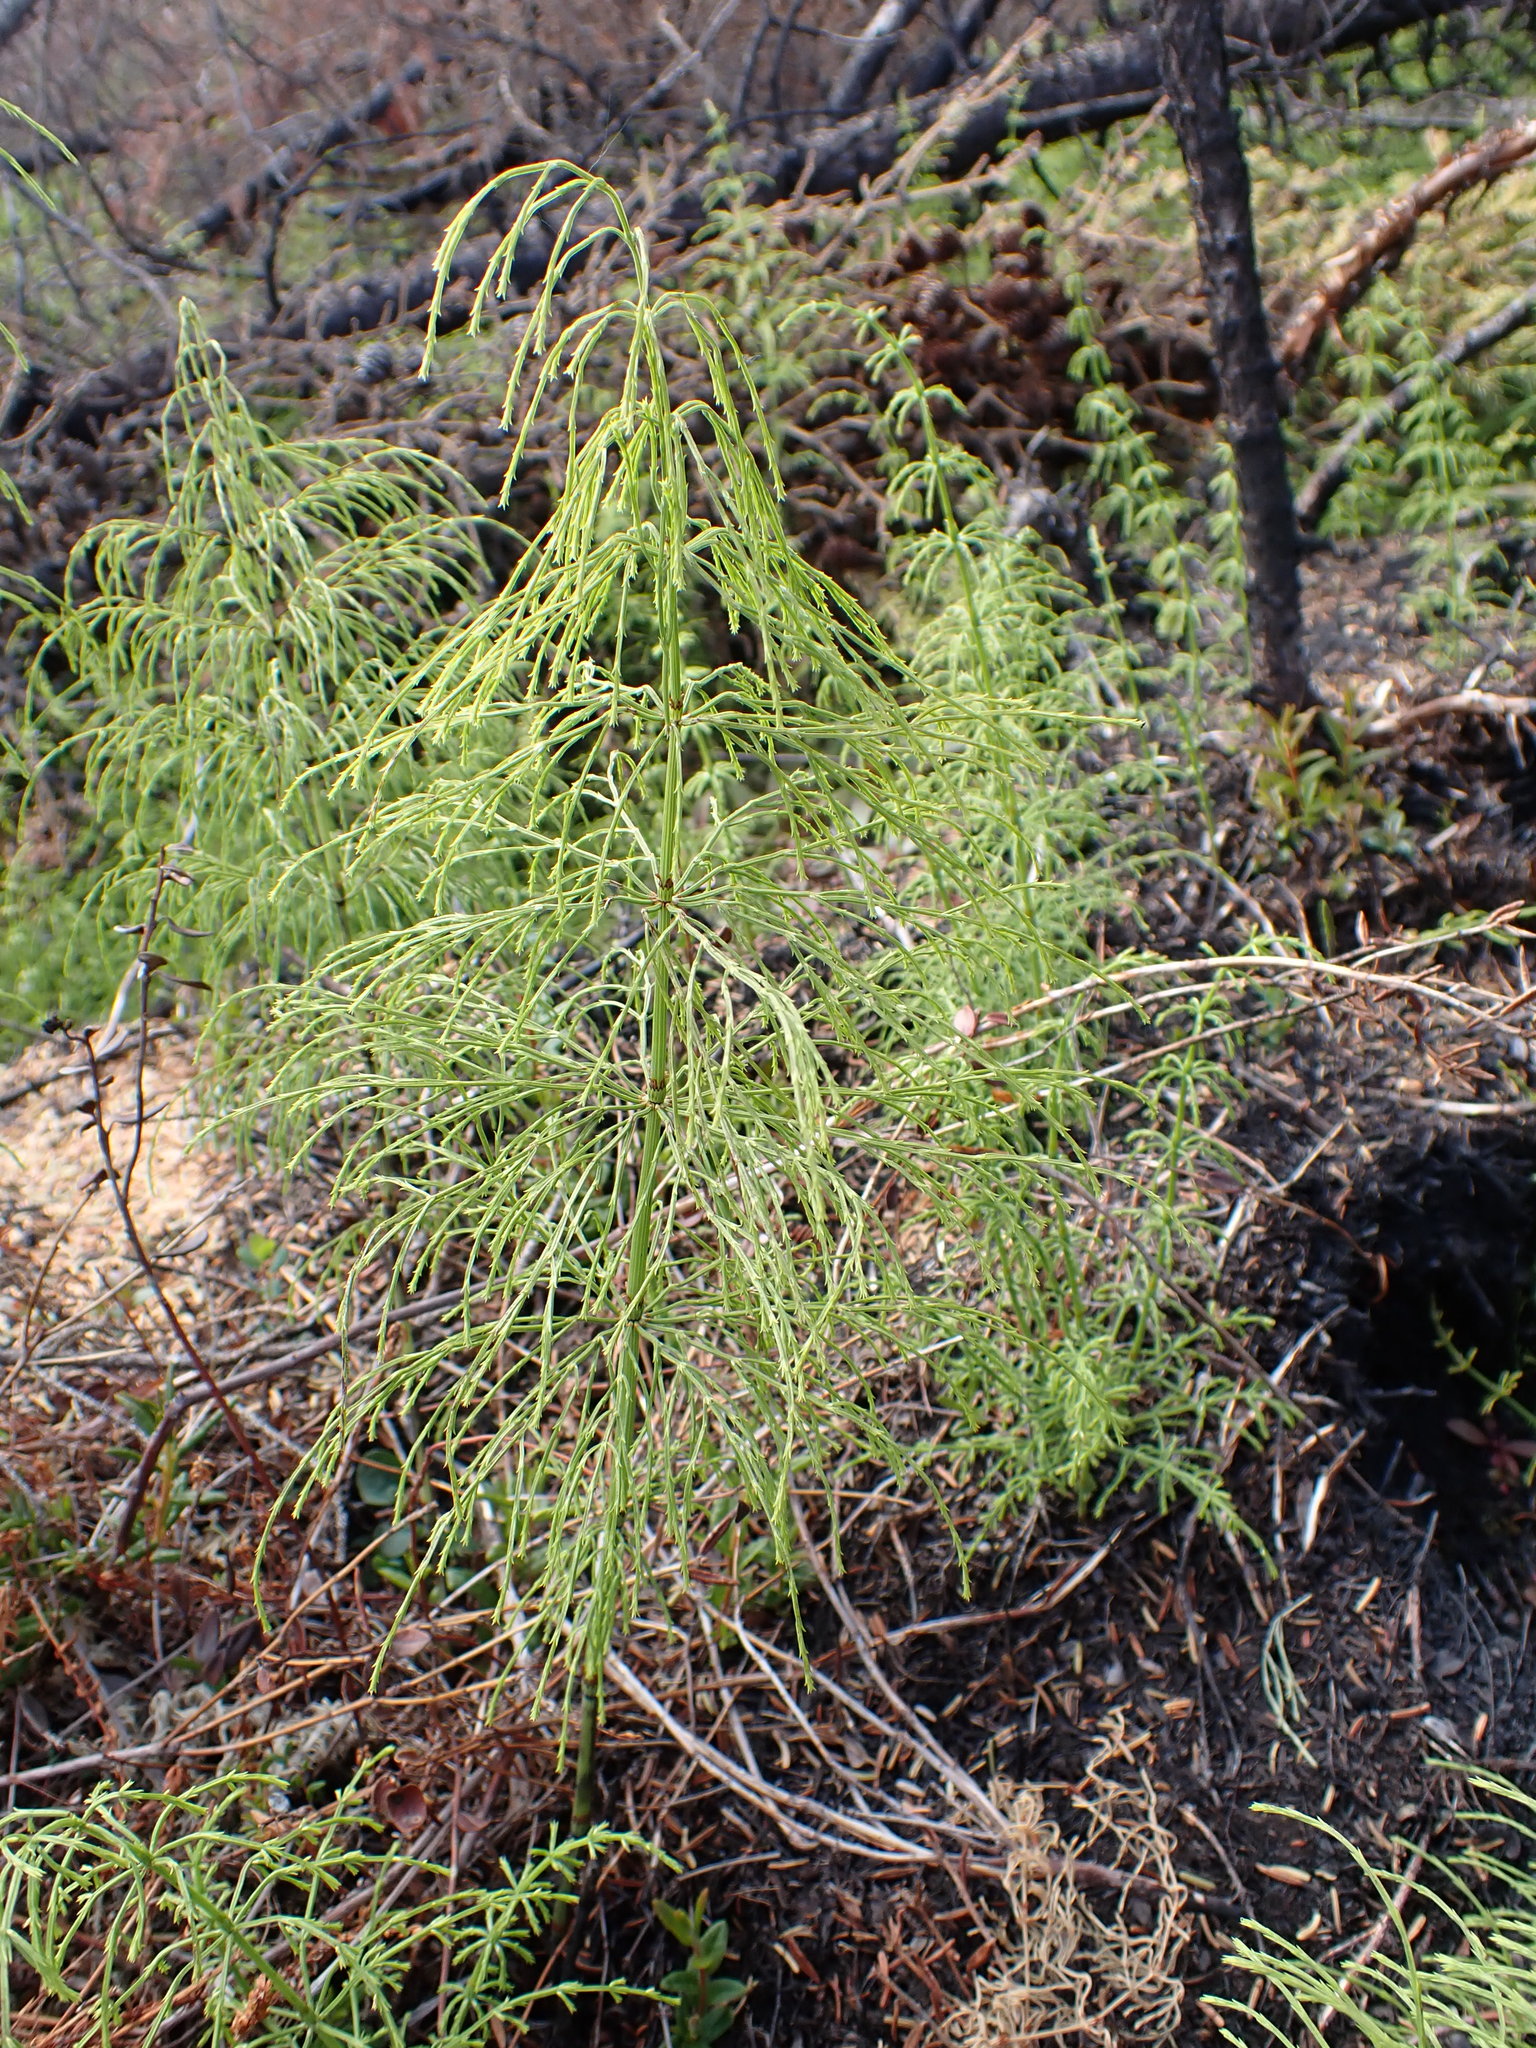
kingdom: Plantae
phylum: Tracheophyta
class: Polypodiopsida
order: Equisetales
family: Equisetaceae
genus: Equisetum
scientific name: Equisetum sylvaticum
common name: Wood horsetail
